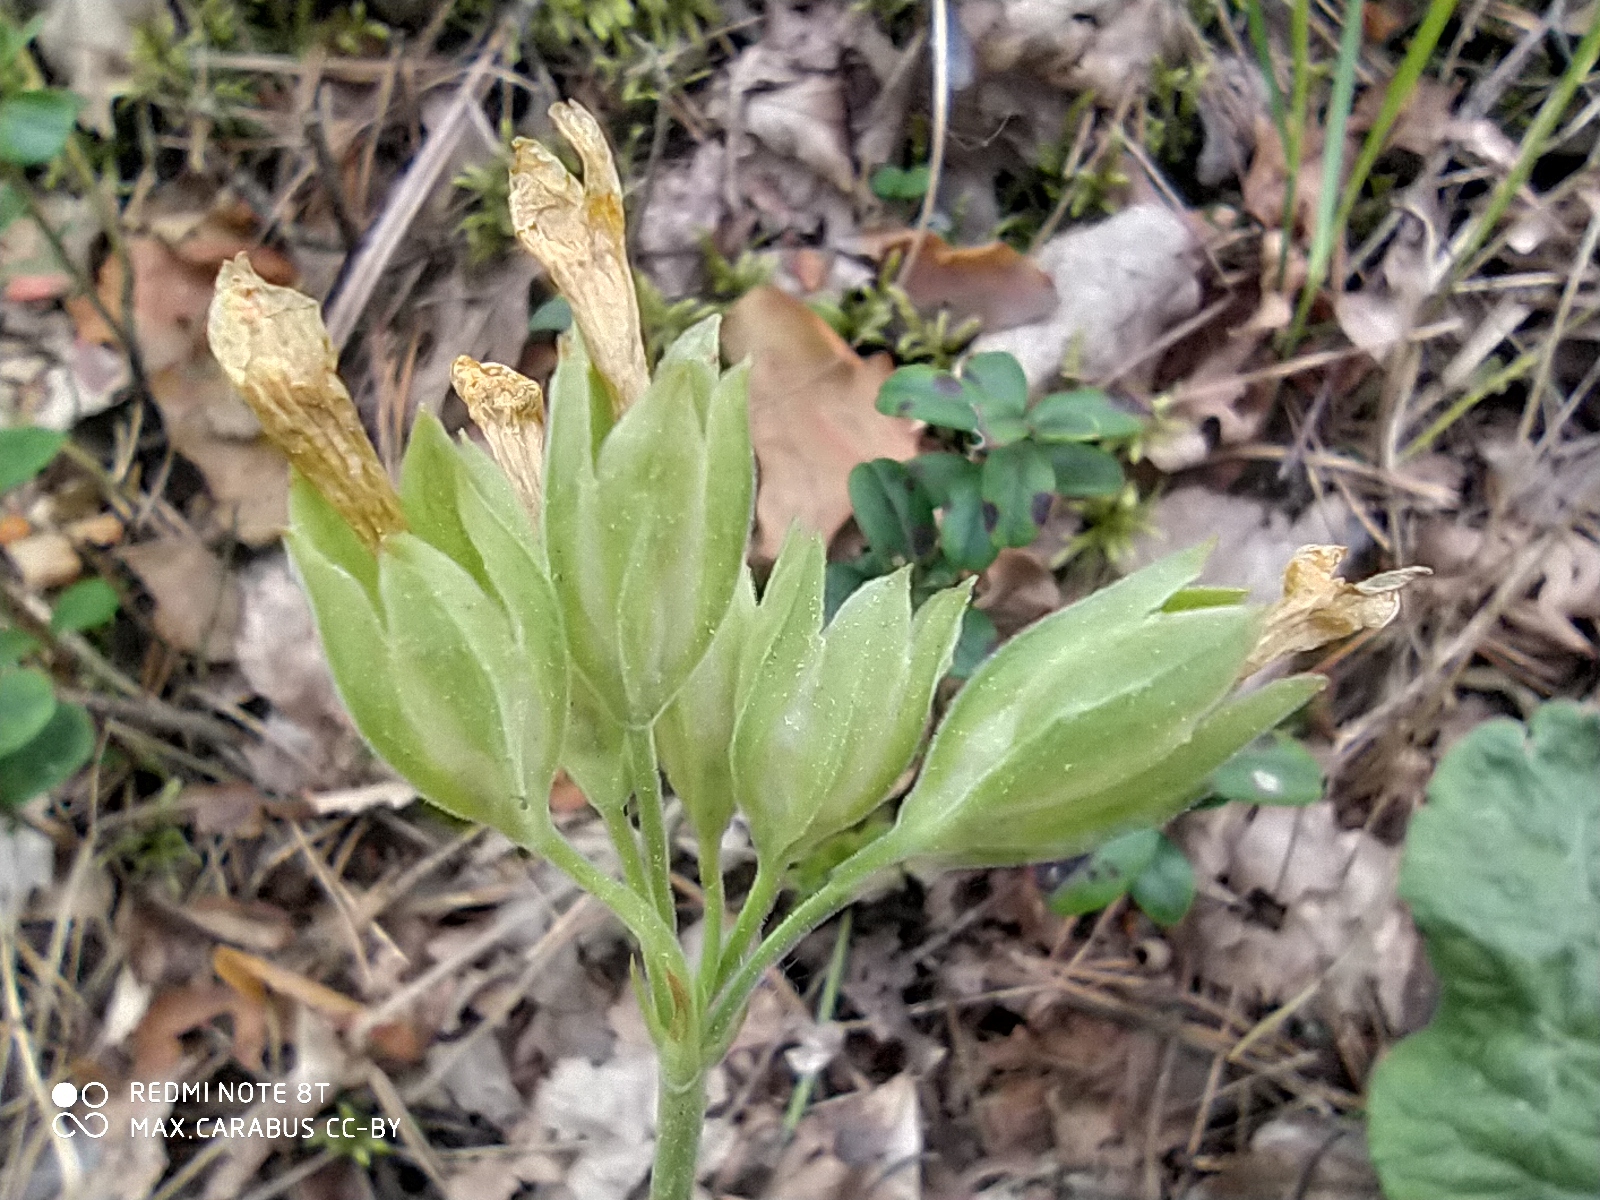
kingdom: Plantae
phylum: Tracheophyta
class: Magnoliopsida
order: Ericales
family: Primulaceae
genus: Primula
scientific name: Primula veris
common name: Cowslip
